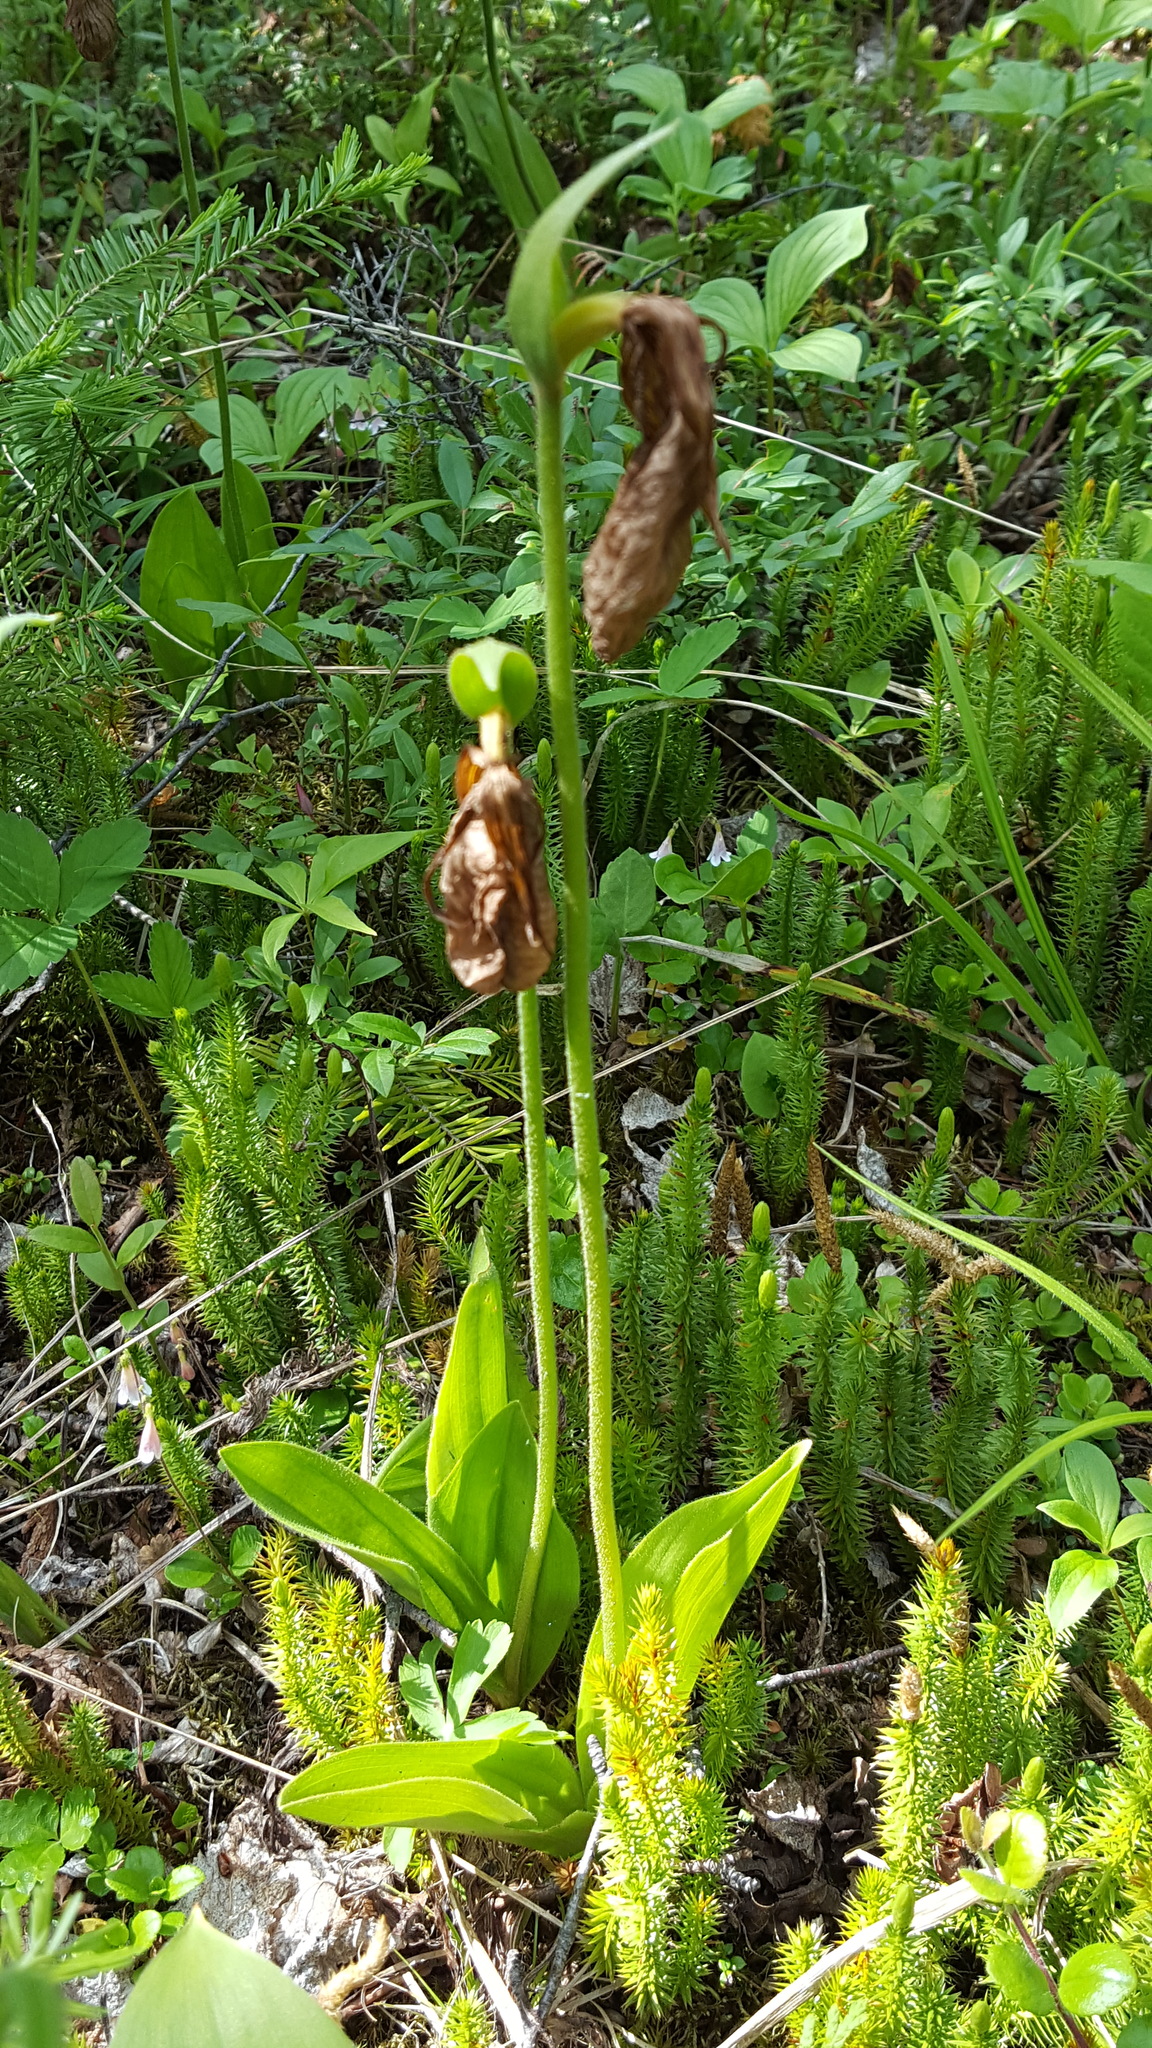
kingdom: Plantae
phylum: Tracheophyta
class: Liliopsida
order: Asparagales
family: Orchidaceae
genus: Cypripedium
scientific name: Cypripedium acaule
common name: Pink lady's-slipper
